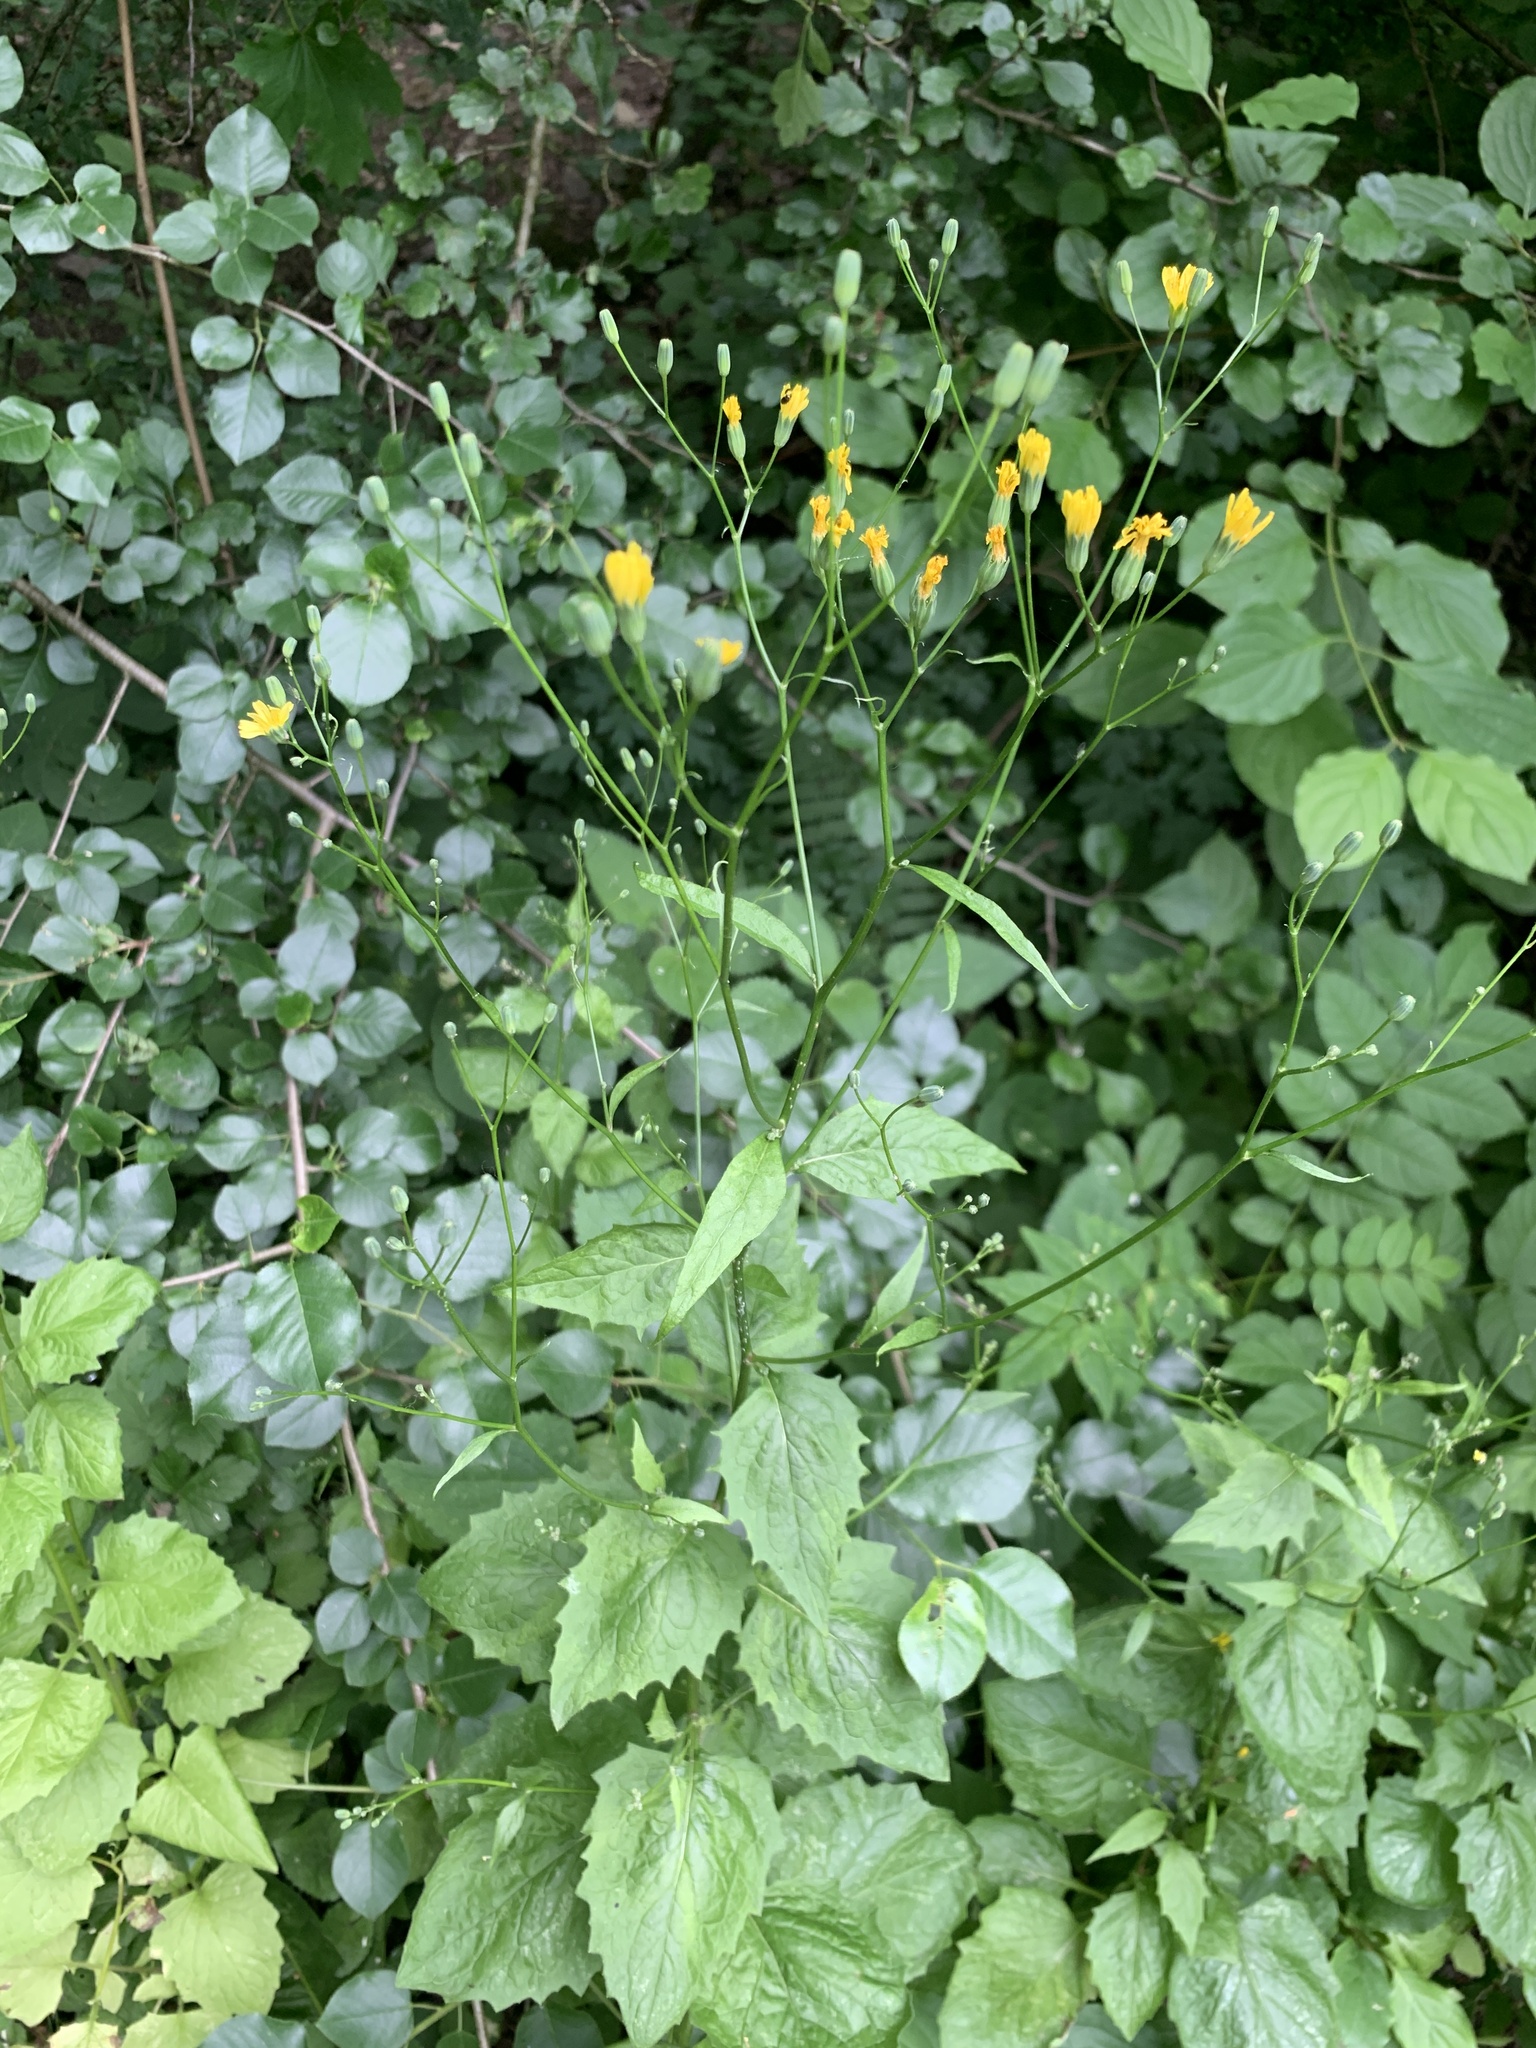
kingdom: Plantae
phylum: Tracheophyta
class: Magnoliopsida
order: Asterales
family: Asteraceae
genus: Lapsana
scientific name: Lapsana communis
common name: Nipplewort
